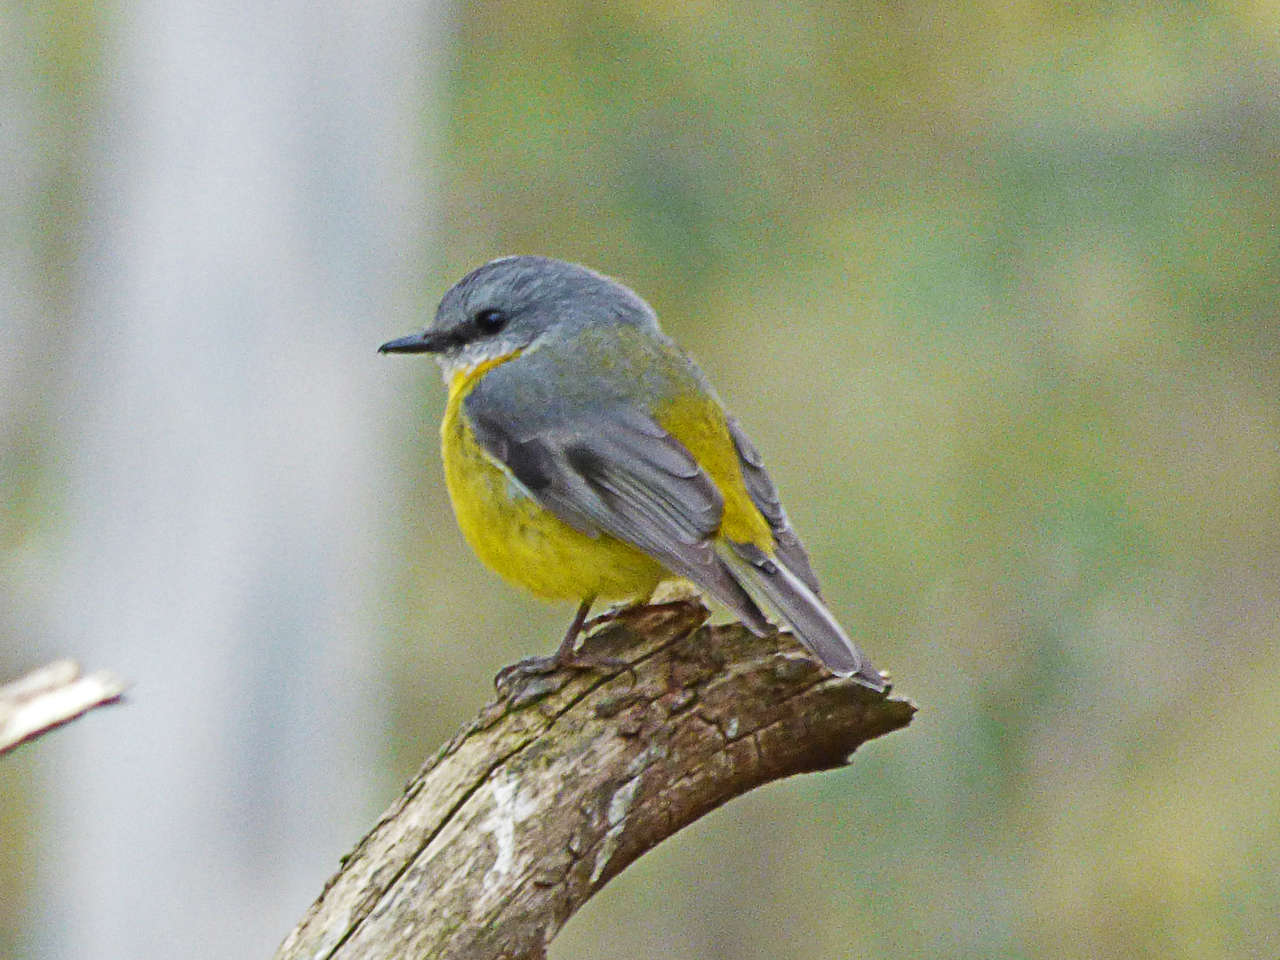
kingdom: Animalia
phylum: Chordata
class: Aves
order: Passeriformes
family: Petroicidae
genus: Eopsaltria
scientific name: Eopsaltria australis
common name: Eastern yellow robin
